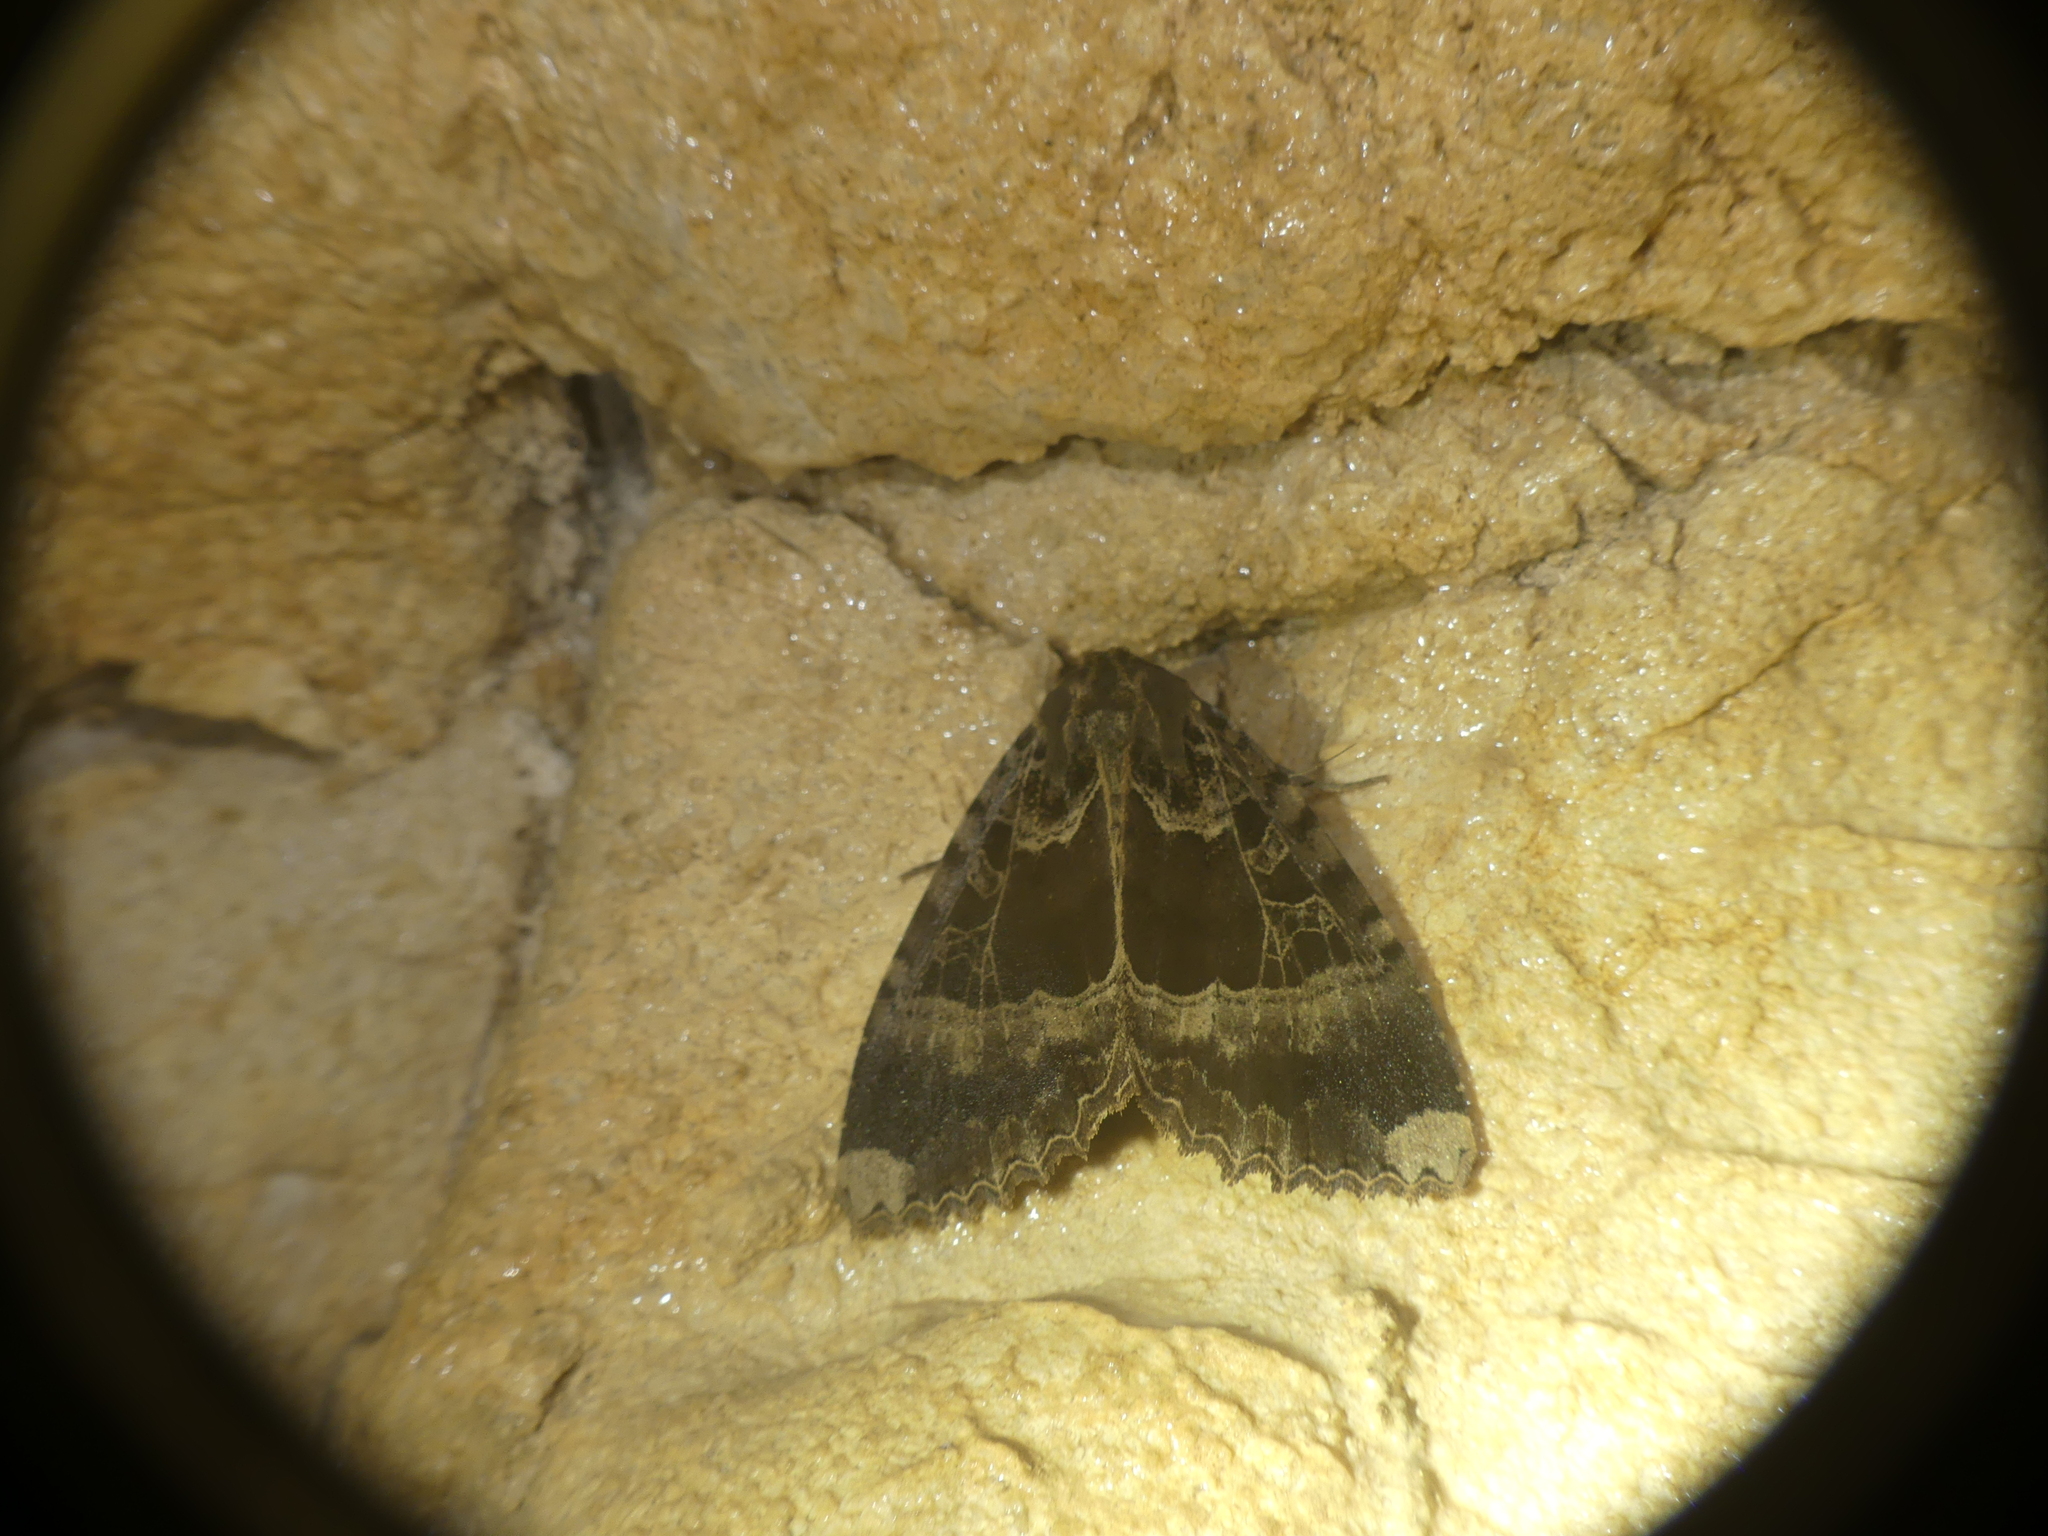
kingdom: Animalia
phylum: Arthropoda
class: Insecta
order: Lepidoptera
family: Noctuidae
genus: Mormo
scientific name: Mormo maura
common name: Old lady
